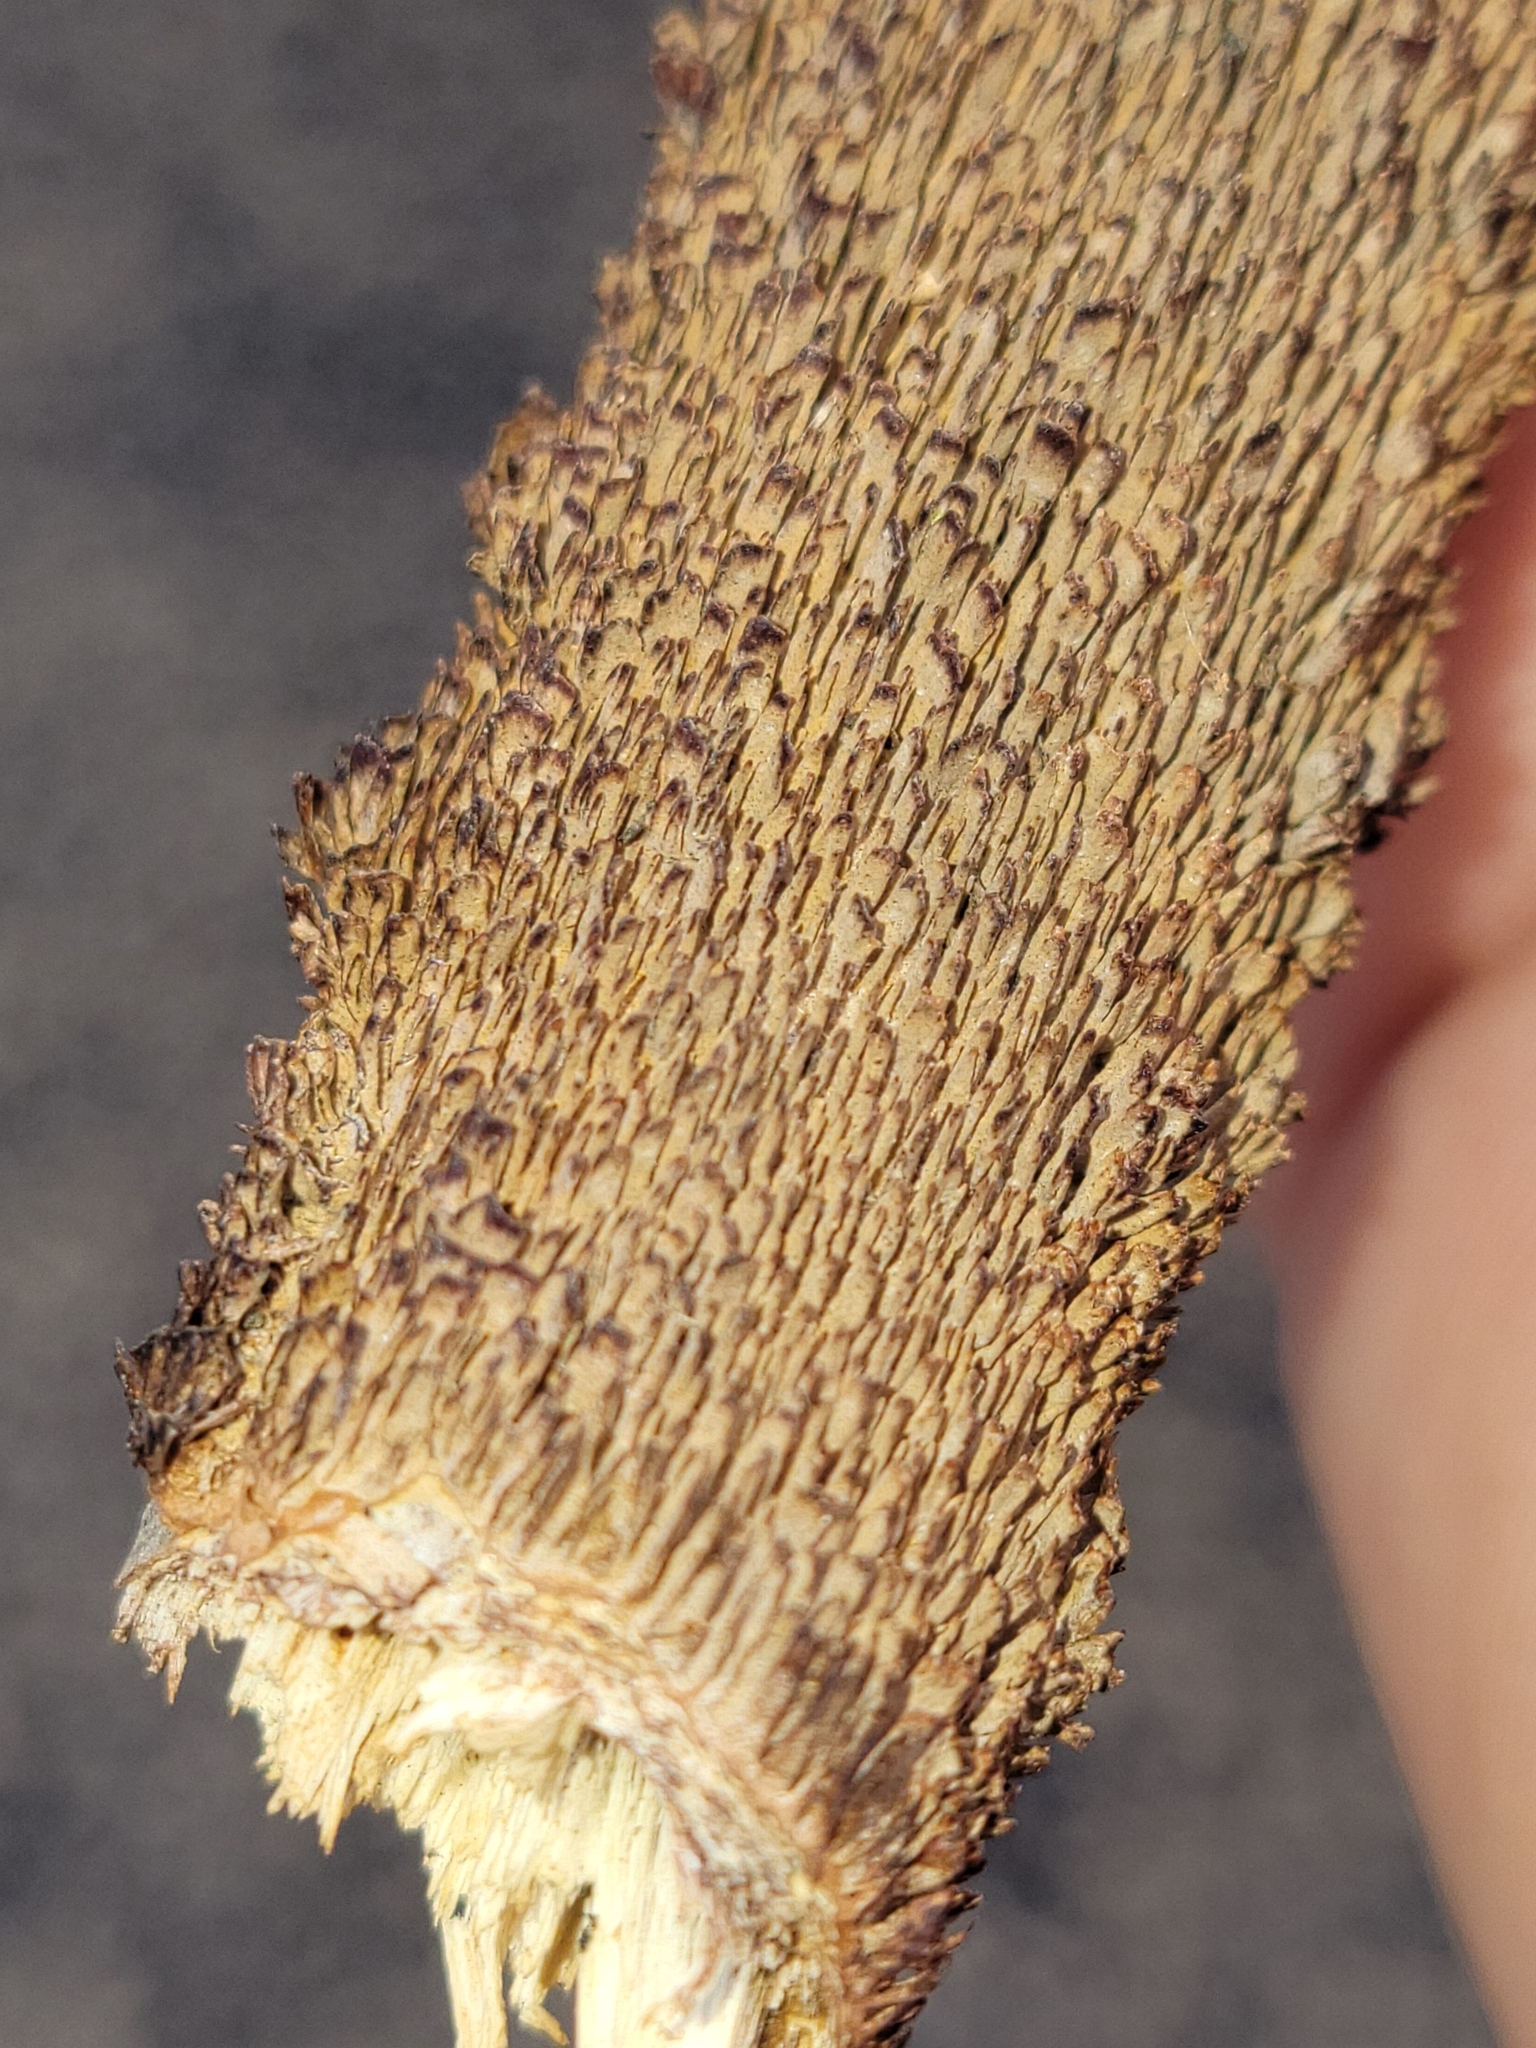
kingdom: Fungi
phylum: Basidiomycota
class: Agaricomycetes
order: Hymenochaetales
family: Hymenochaetaceae
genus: Hydnoporia
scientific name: Hydnoporia olivacea
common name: Brown-toothed crust fungus
